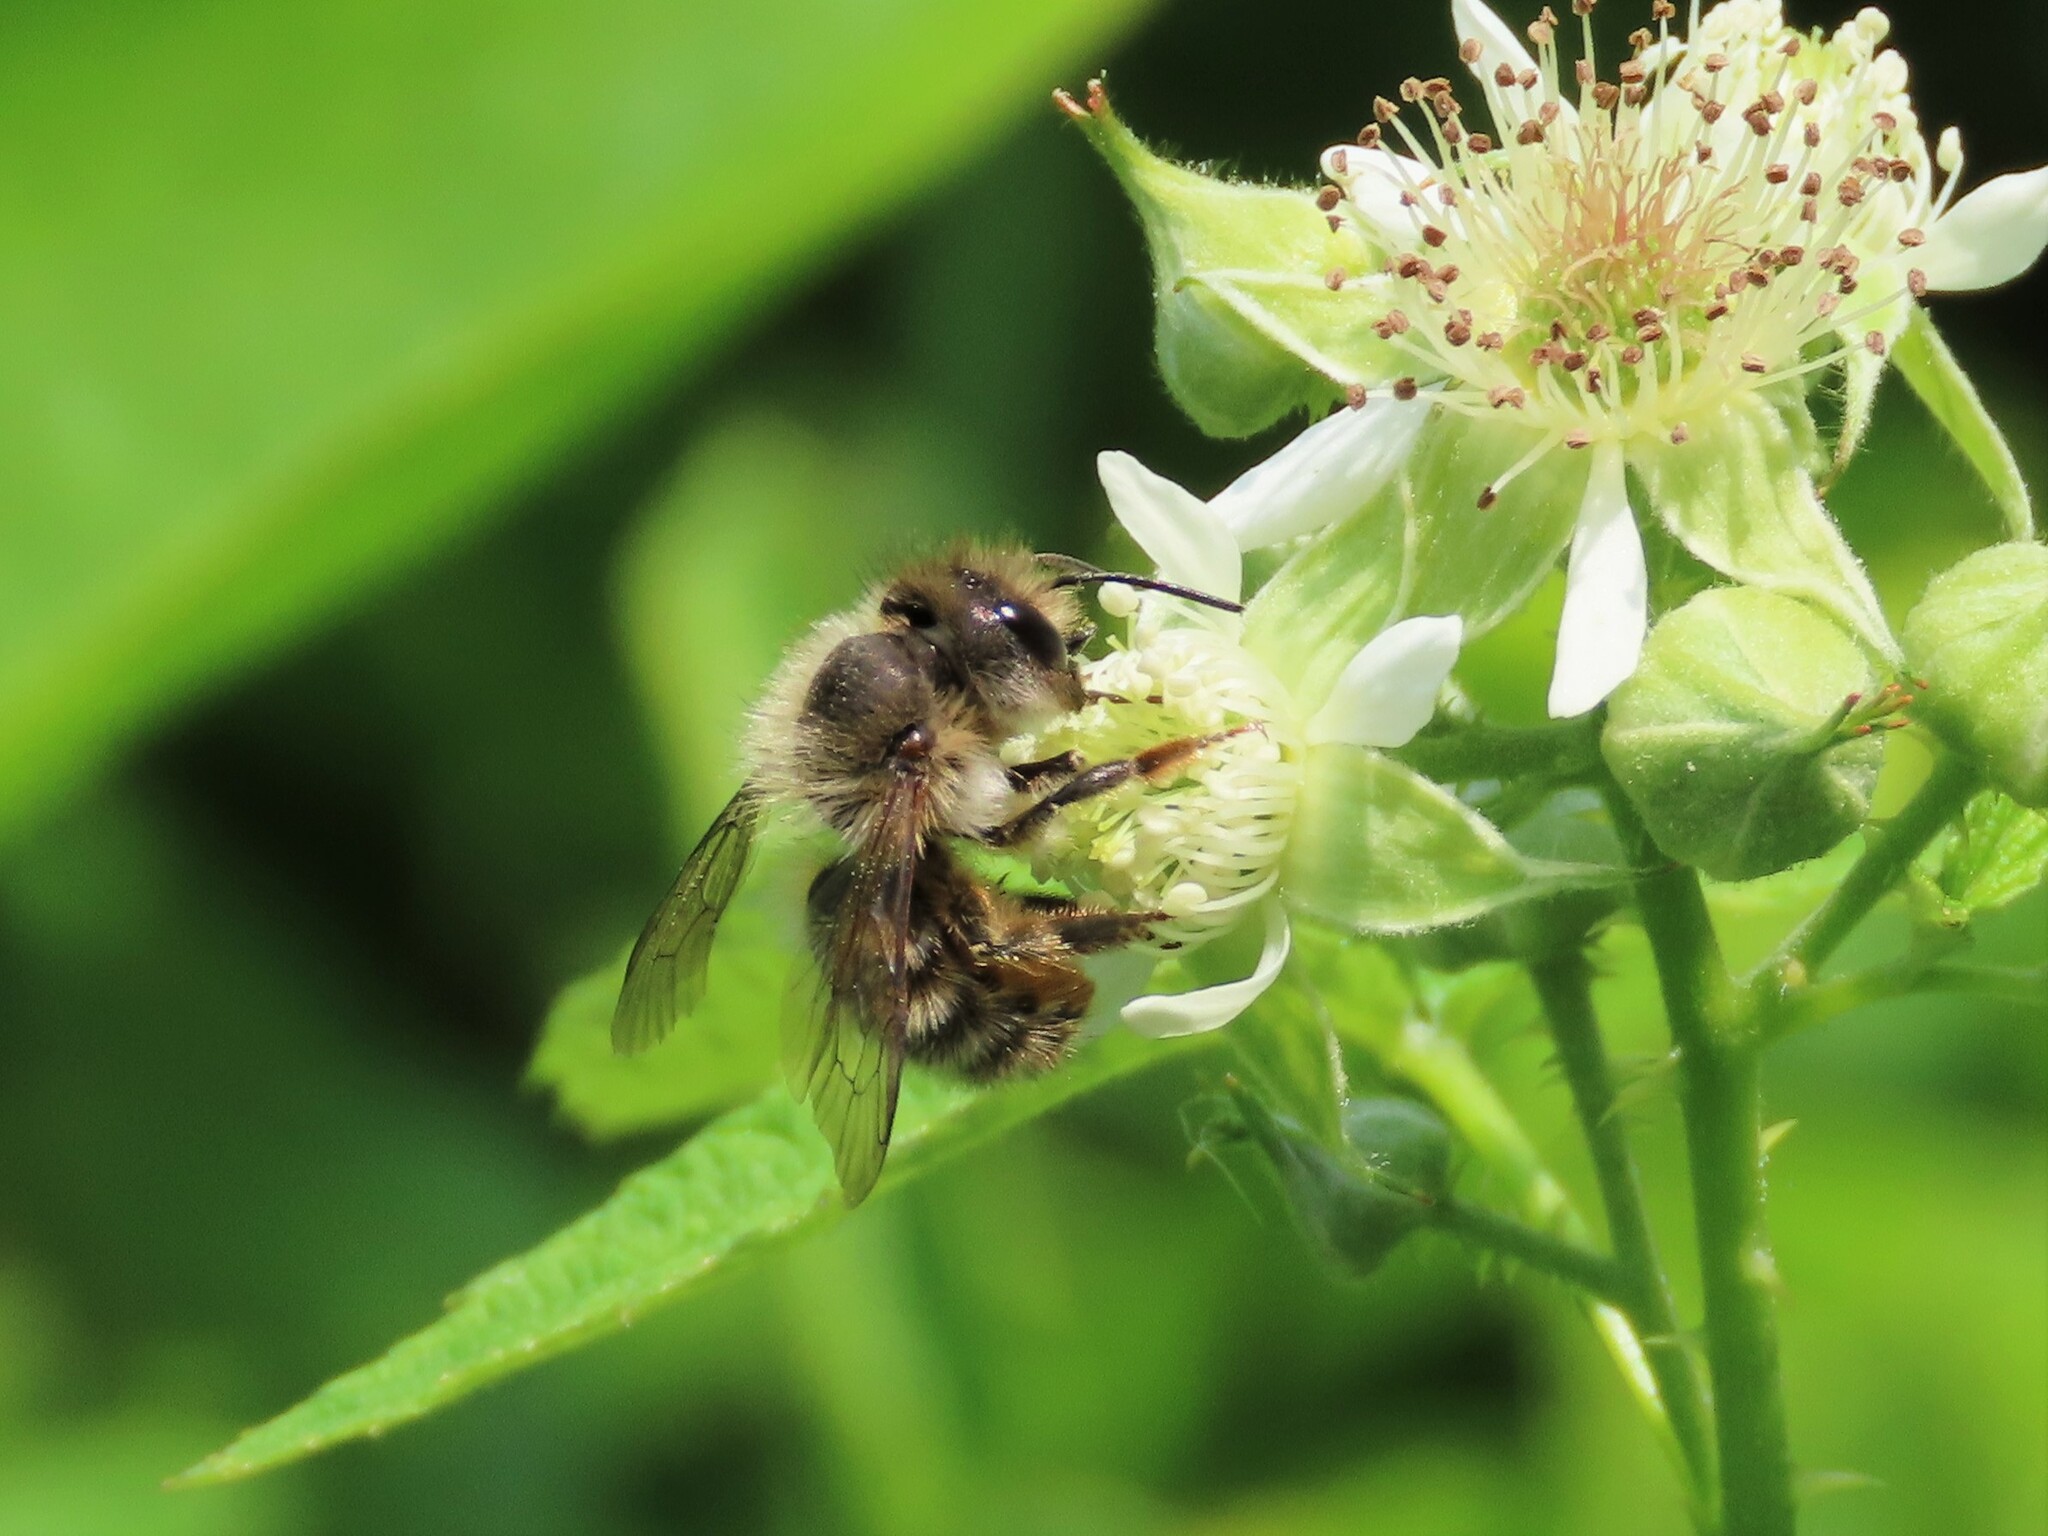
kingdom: Animalia
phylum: Arthropoda
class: Insecta
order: Hymenoptera
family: Megachilidae
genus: Osmia
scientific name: Osmia cornifrons
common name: Horn-faced bee
